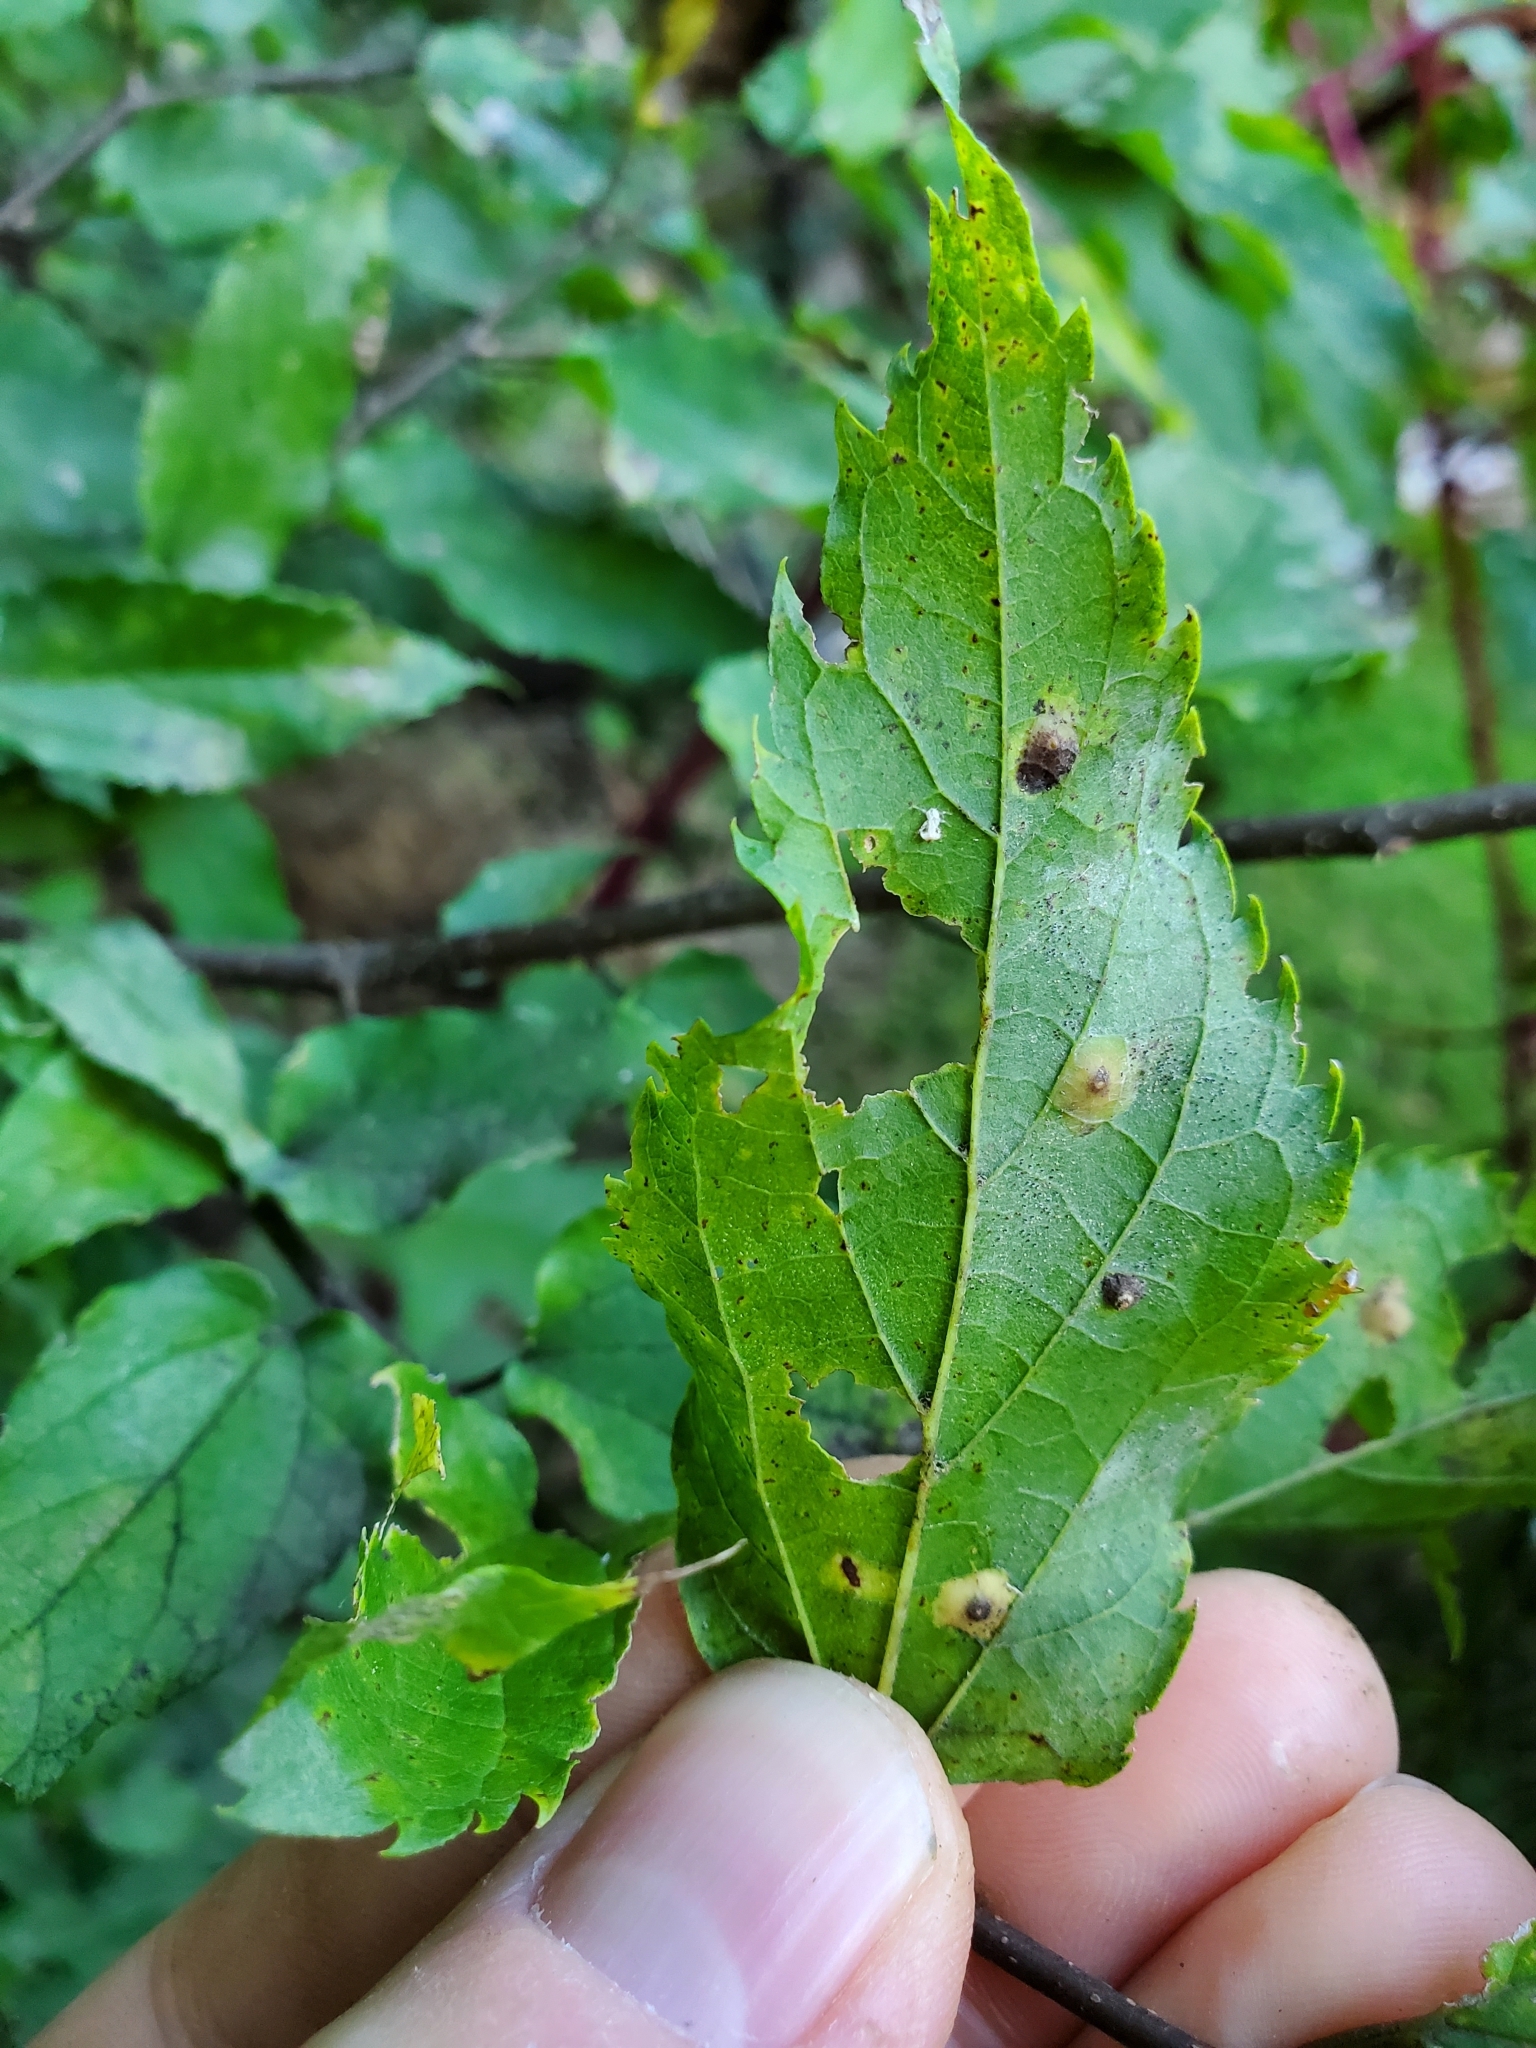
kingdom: Animalia
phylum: Arthropoda
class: Insecta
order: Hemiptera
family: Aphalaridae
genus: Pachypsylla
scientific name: Pachypsylla celtidisvesicula
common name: Hackberry blister gall psyllid
